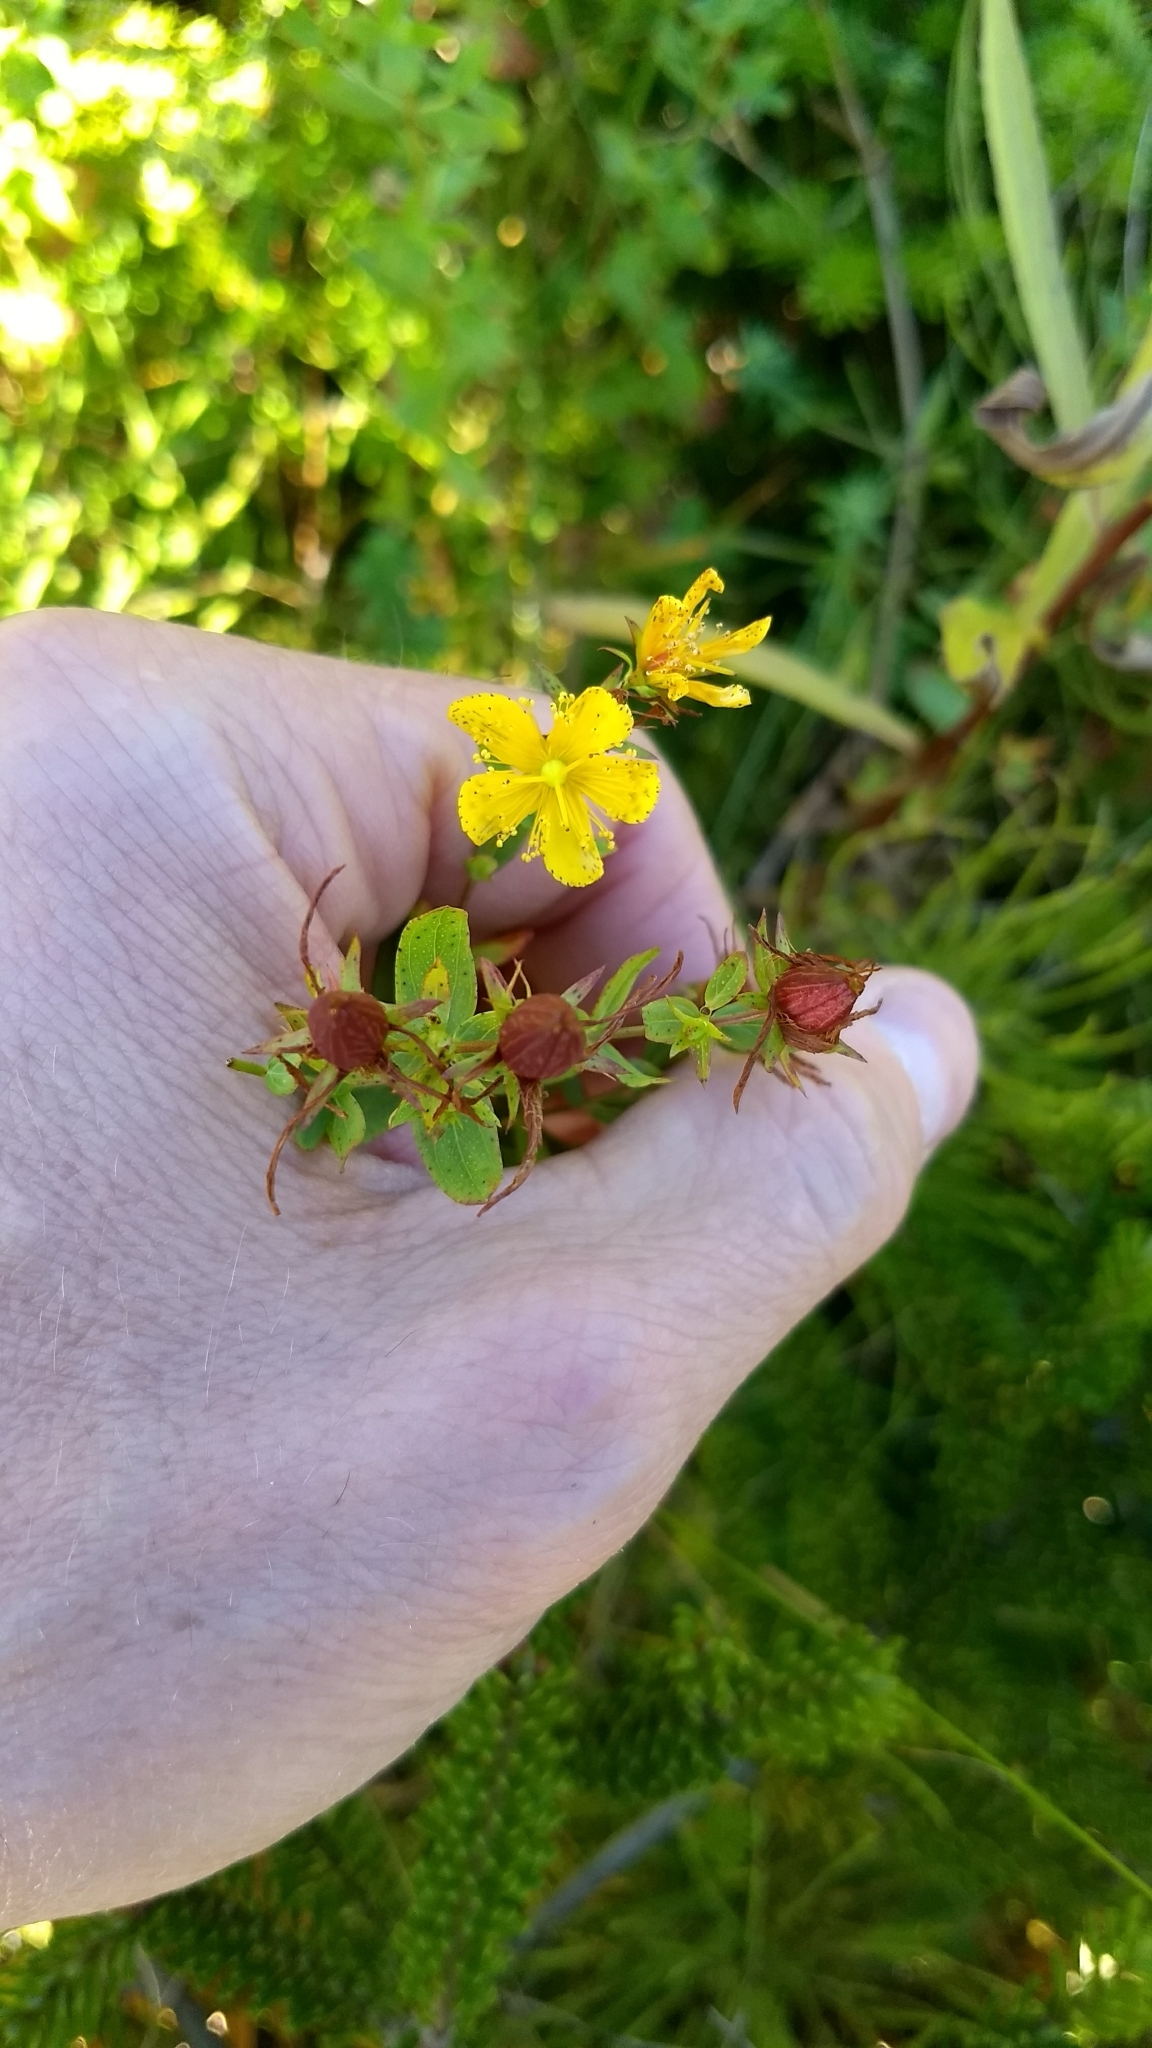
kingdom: Plantae
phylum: Tracheophyta
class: Magnoliopsida
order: Malpighiales
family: Hypericaceae
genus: Hypericum
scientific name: Hypericum perforatum
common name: Common st. johnswort
